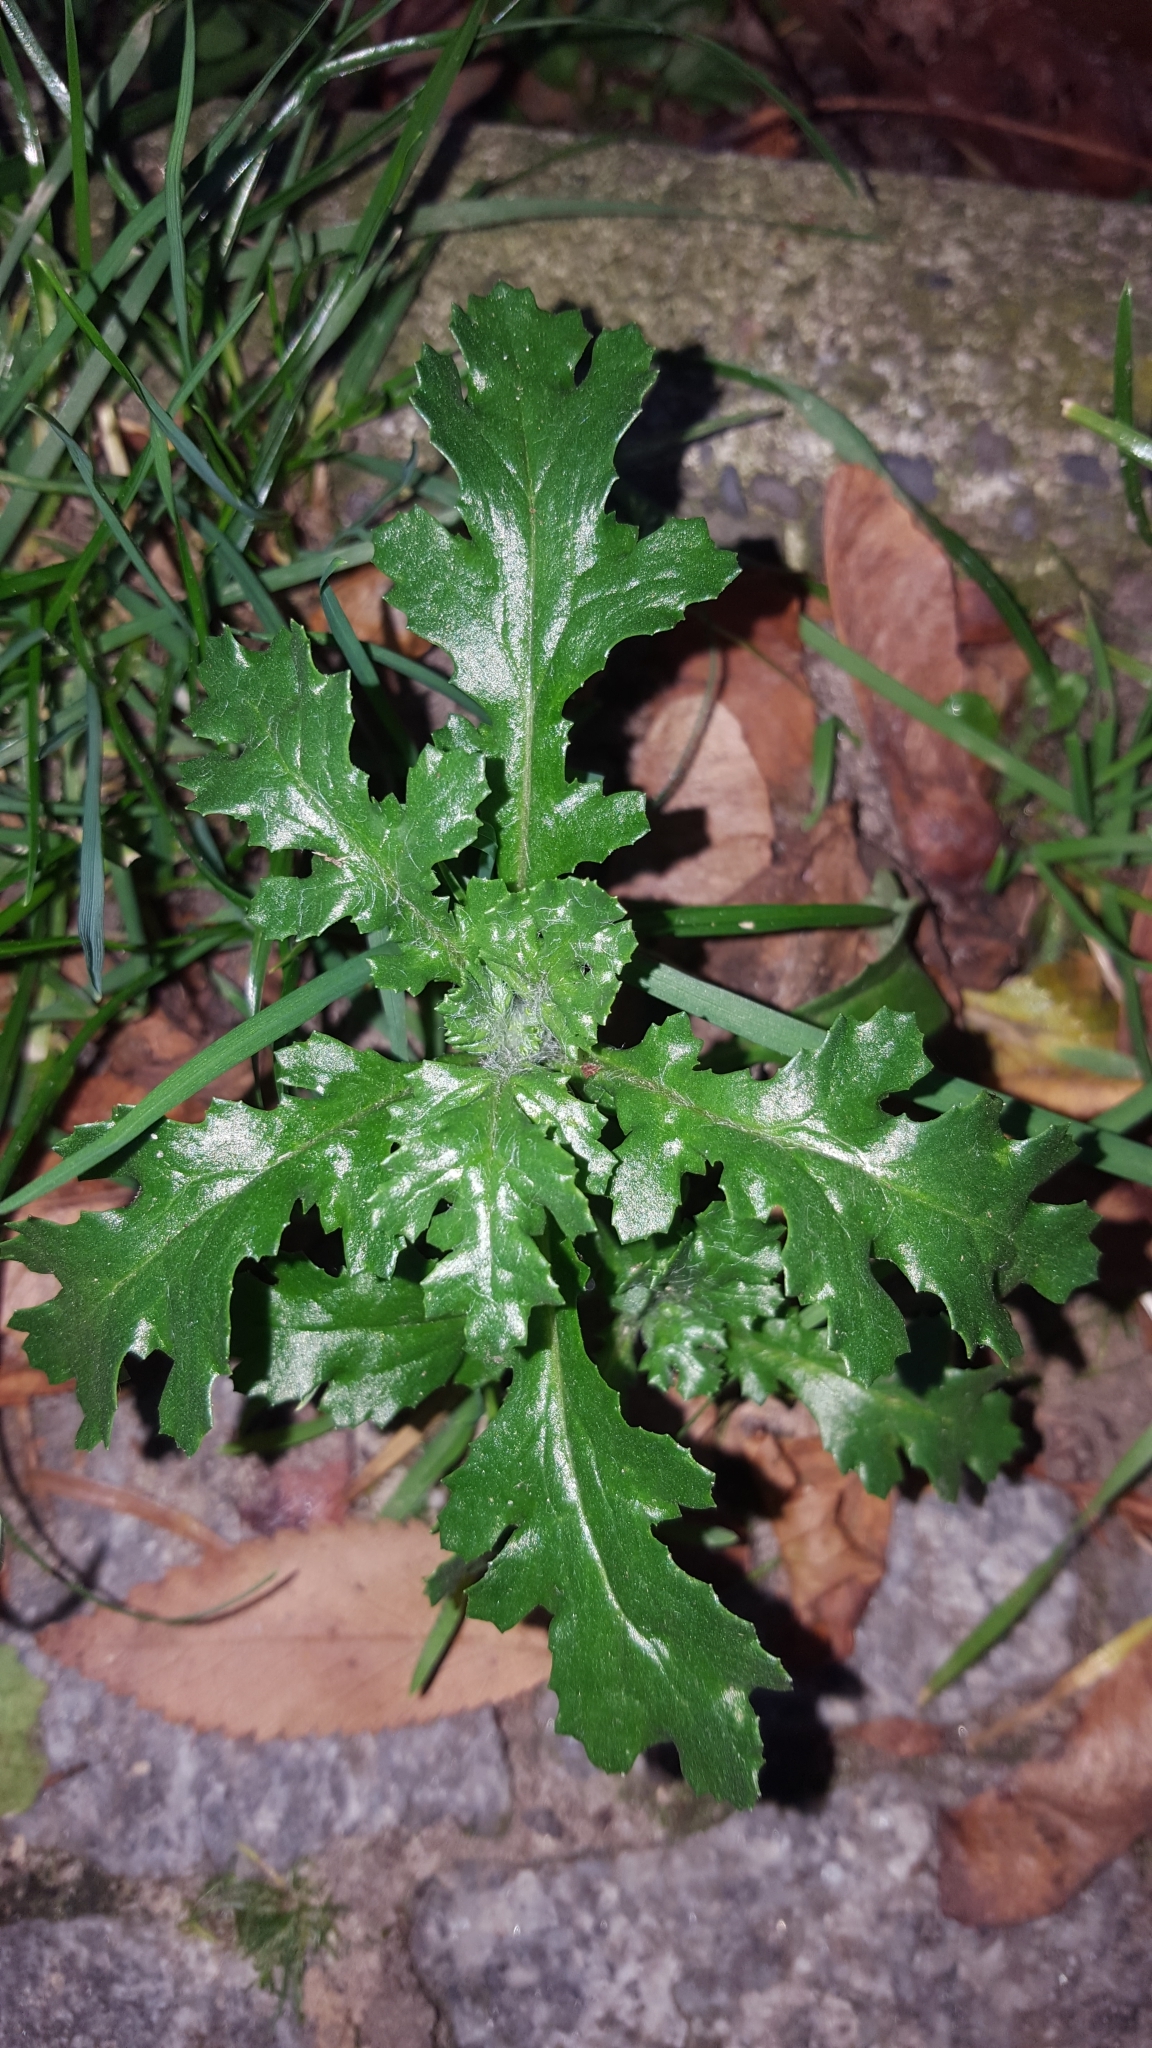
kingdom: Plantae
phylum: Tracheophyta
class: Magnoliopsida
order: Asterales
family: Asteraceae
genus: Senecio
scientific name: Senecio vulgaris
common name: Old-man-in-the-spring
